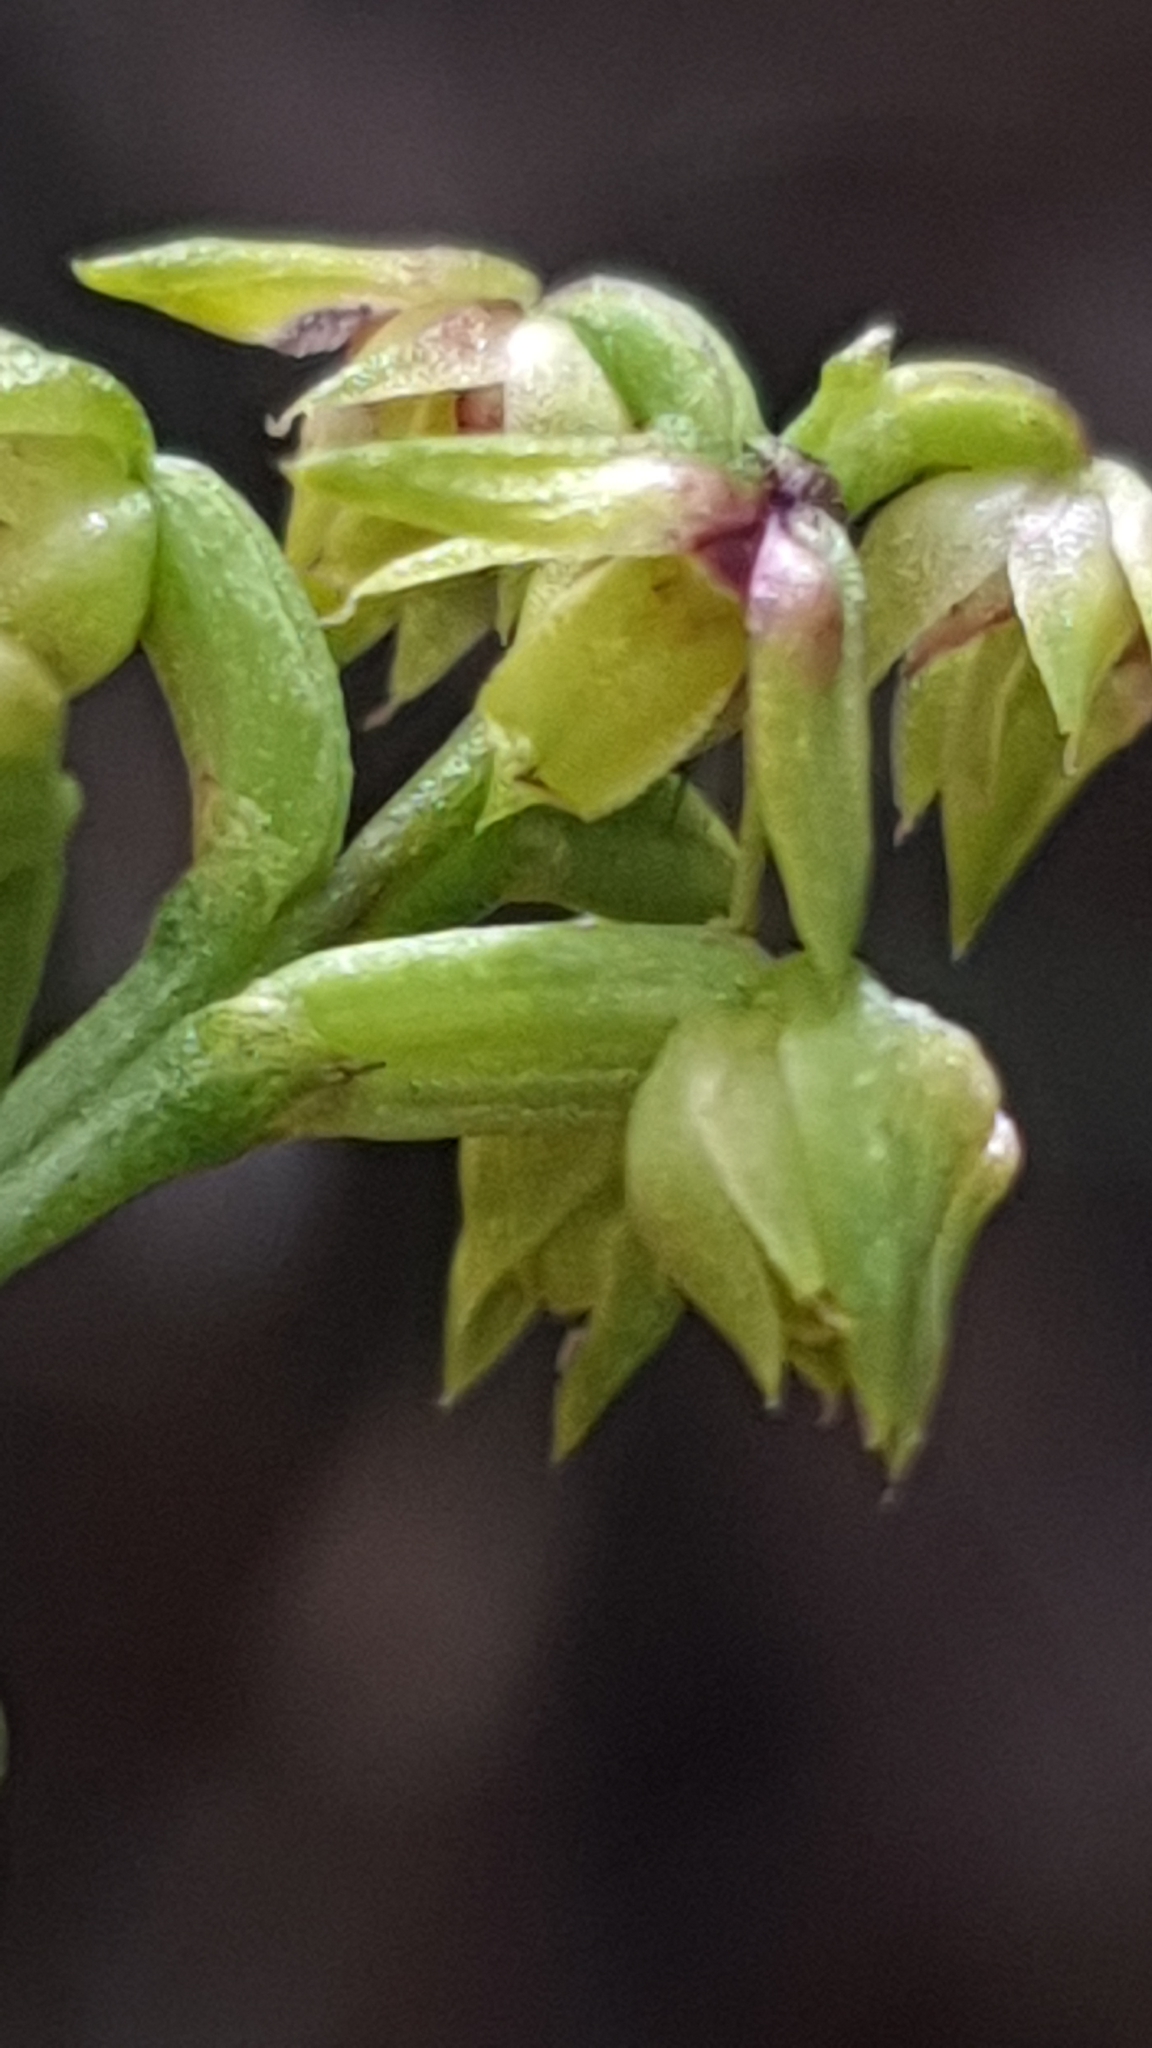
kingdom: Plantae
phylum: Tracheophyta
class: Liliopsida
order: Asparagales
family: Orchidaceae
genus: Genoplesium
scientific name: Genoplesium pumilum
